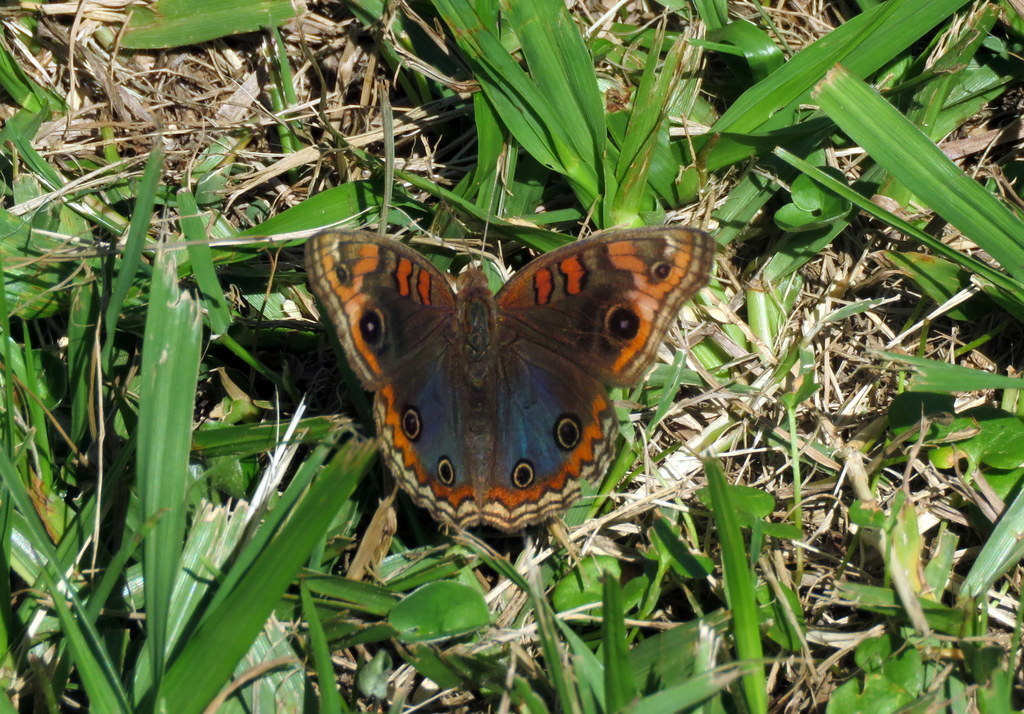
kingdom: Animalia
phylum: Arthropoda
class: Insecta
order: Lepidoptera
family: Nymphalidae
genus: Junonia
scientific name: Junonia lavinia
